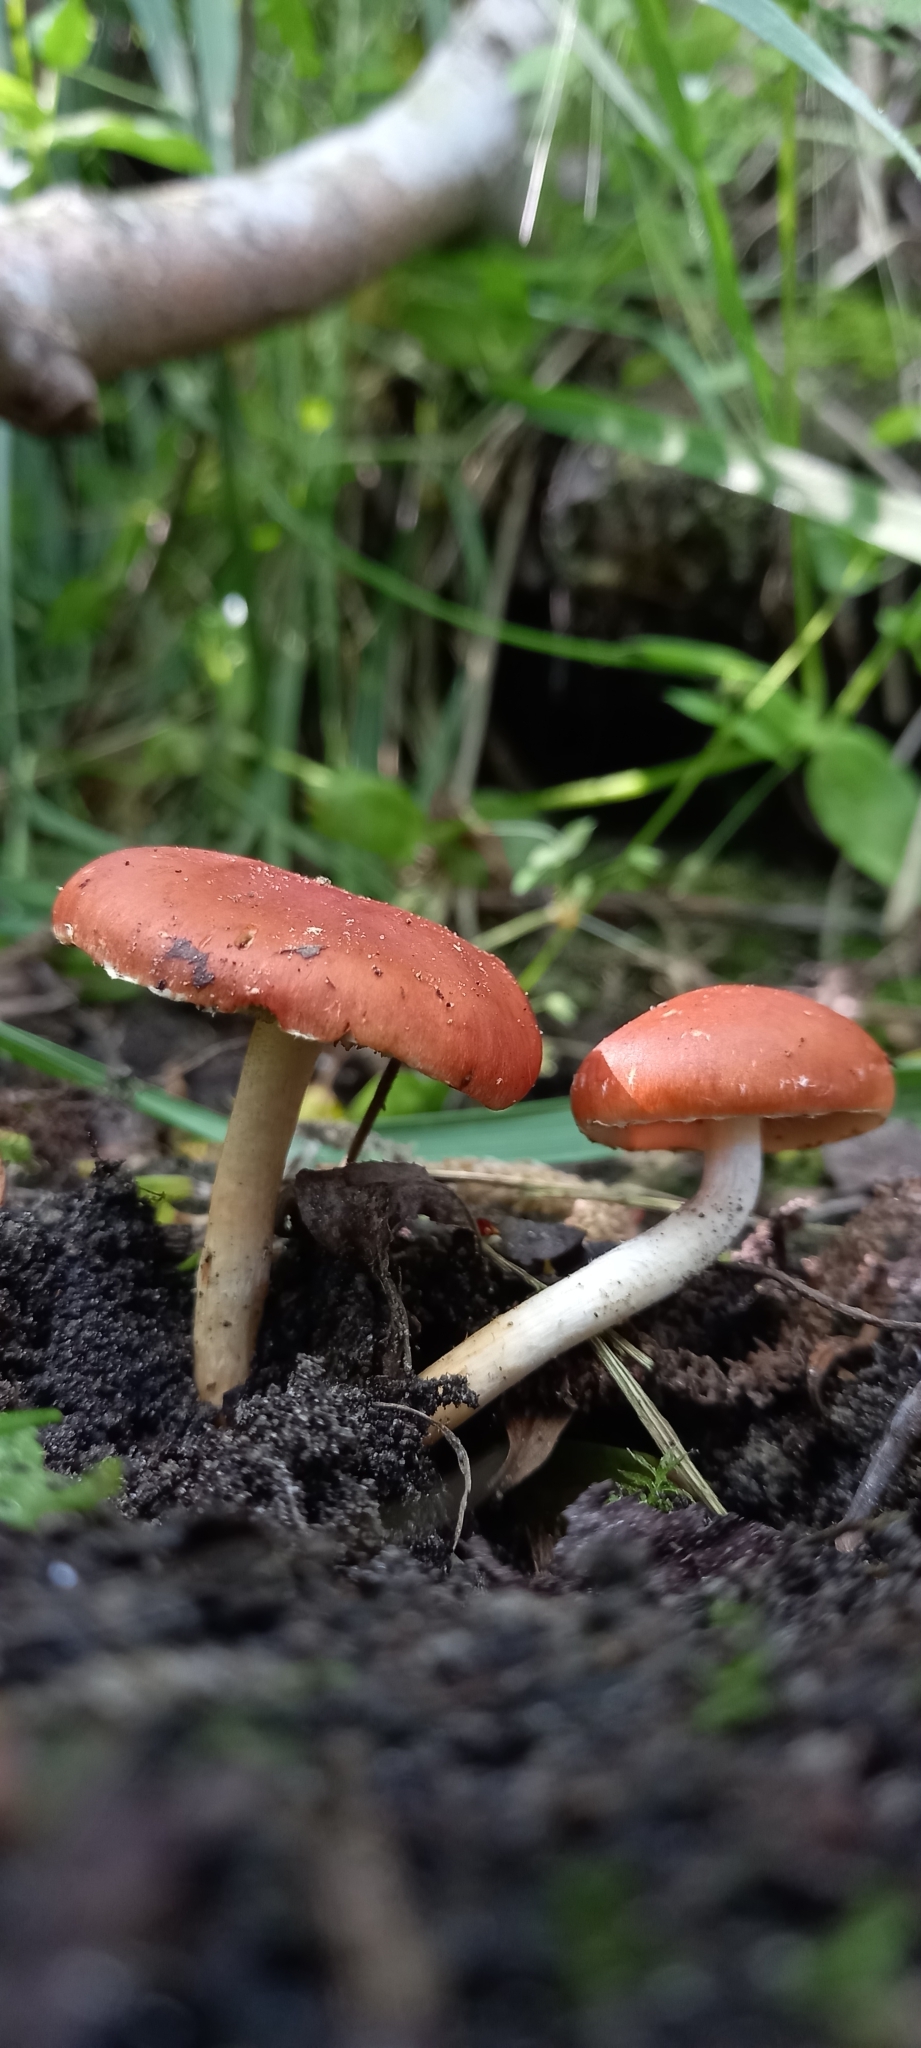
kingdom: Fungi
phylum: Basidiomycota
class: Agaricomycetes
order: Agaricales
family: Strophariaceae
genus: Leratiomyces
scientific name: Leratiomyces ceres
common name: Redlead roundhead
